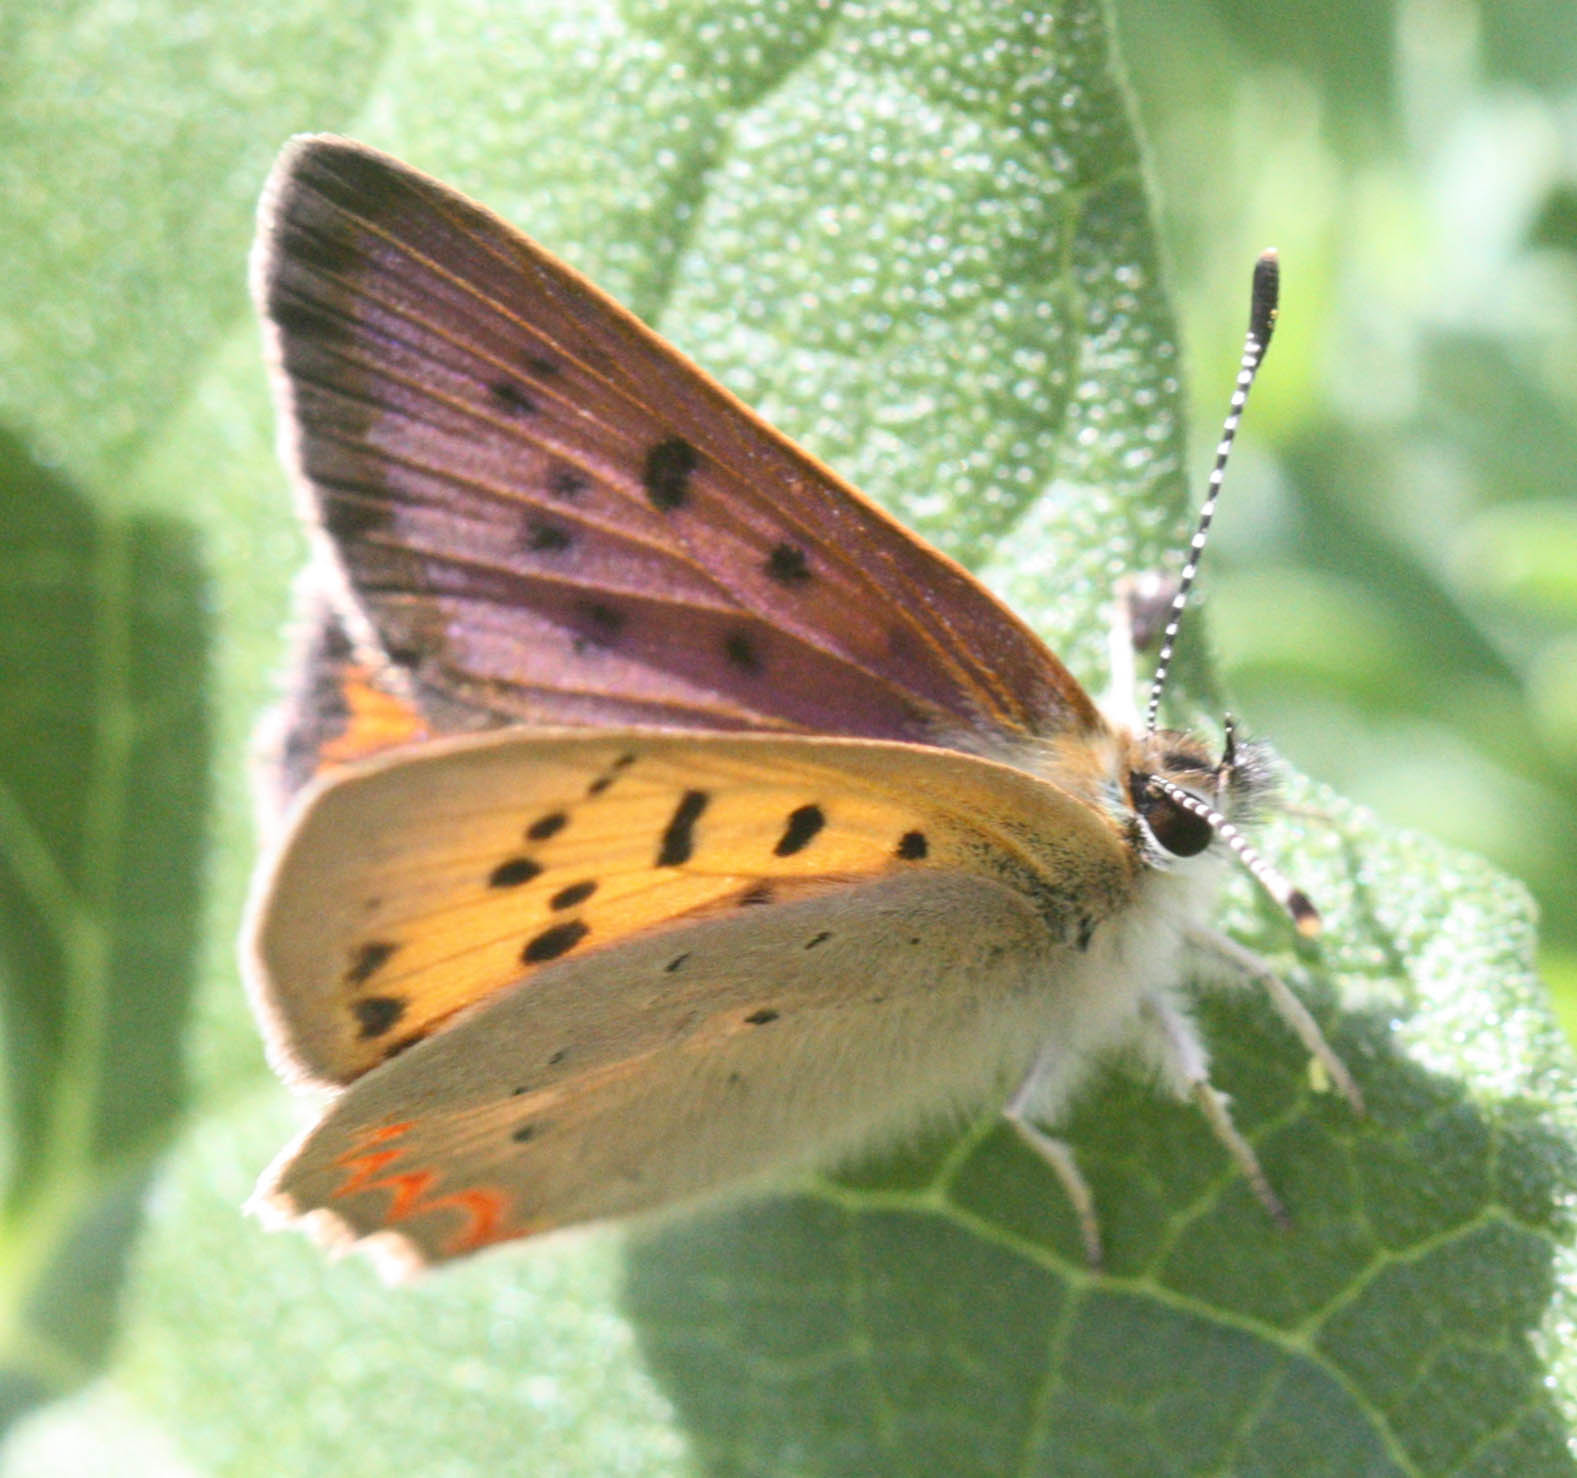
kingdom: Animalia
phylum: Arthropoda
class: Insecta
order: Lepidoptera
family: Lycaenidae
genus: Tharsalea
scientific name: Tharsalea helloides
